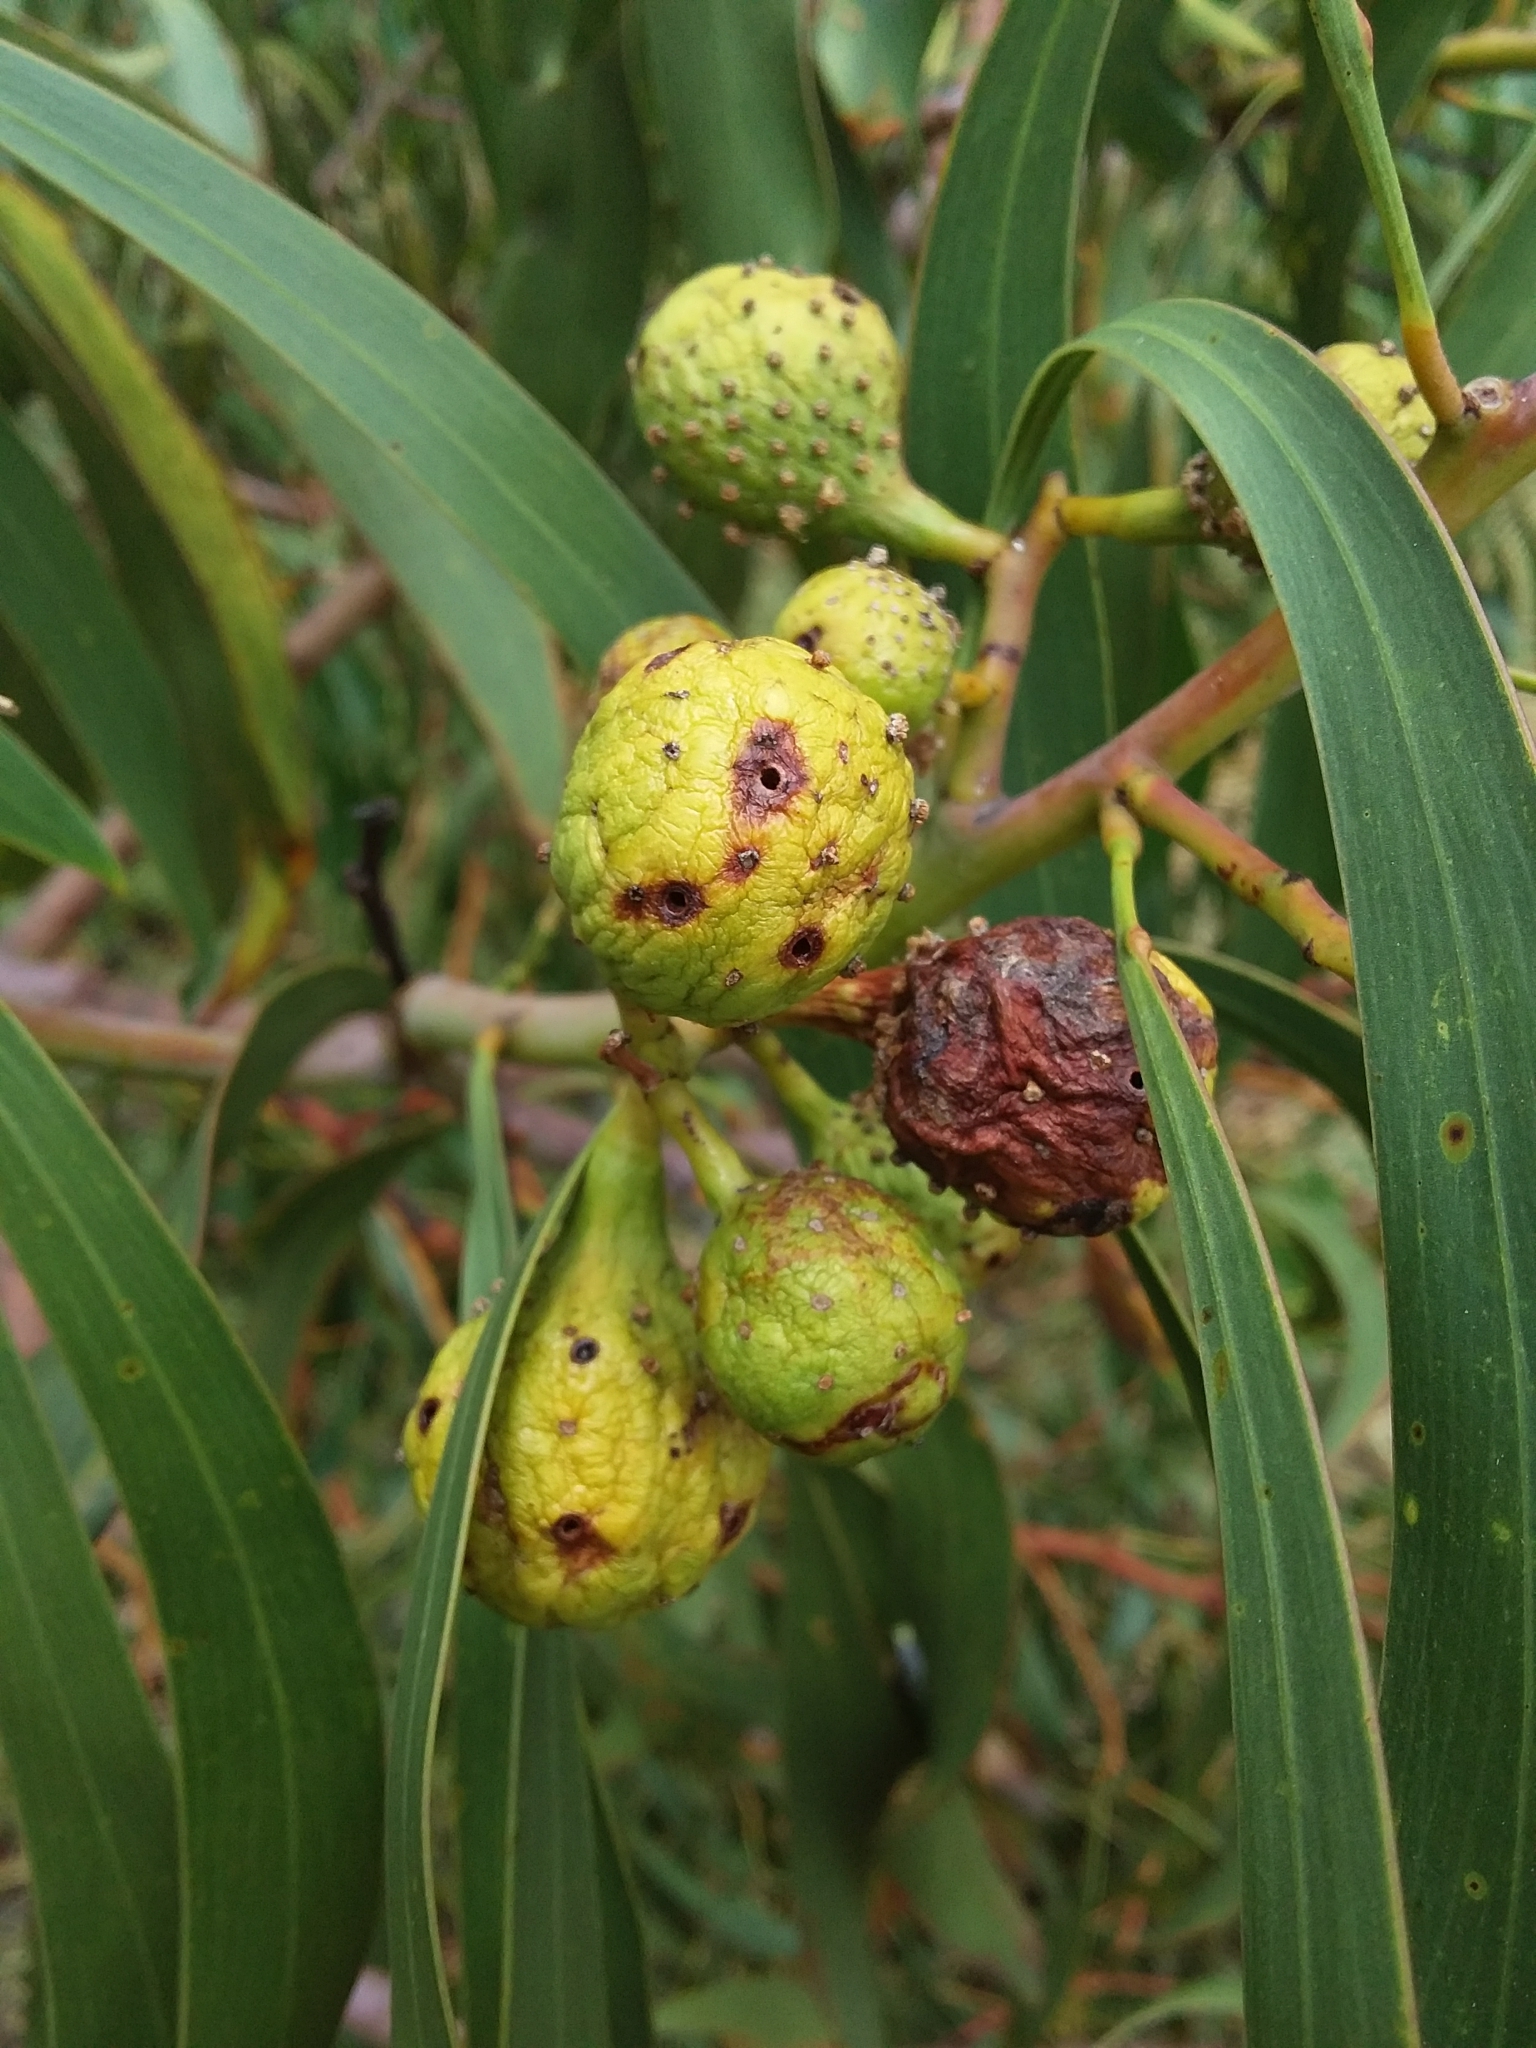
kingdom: Animalia
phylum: Arthropoda
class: Insecta
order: Hymenoptera
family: Pteromalidae
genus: Trichilogaster
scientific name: Trichilogaster signiventris
